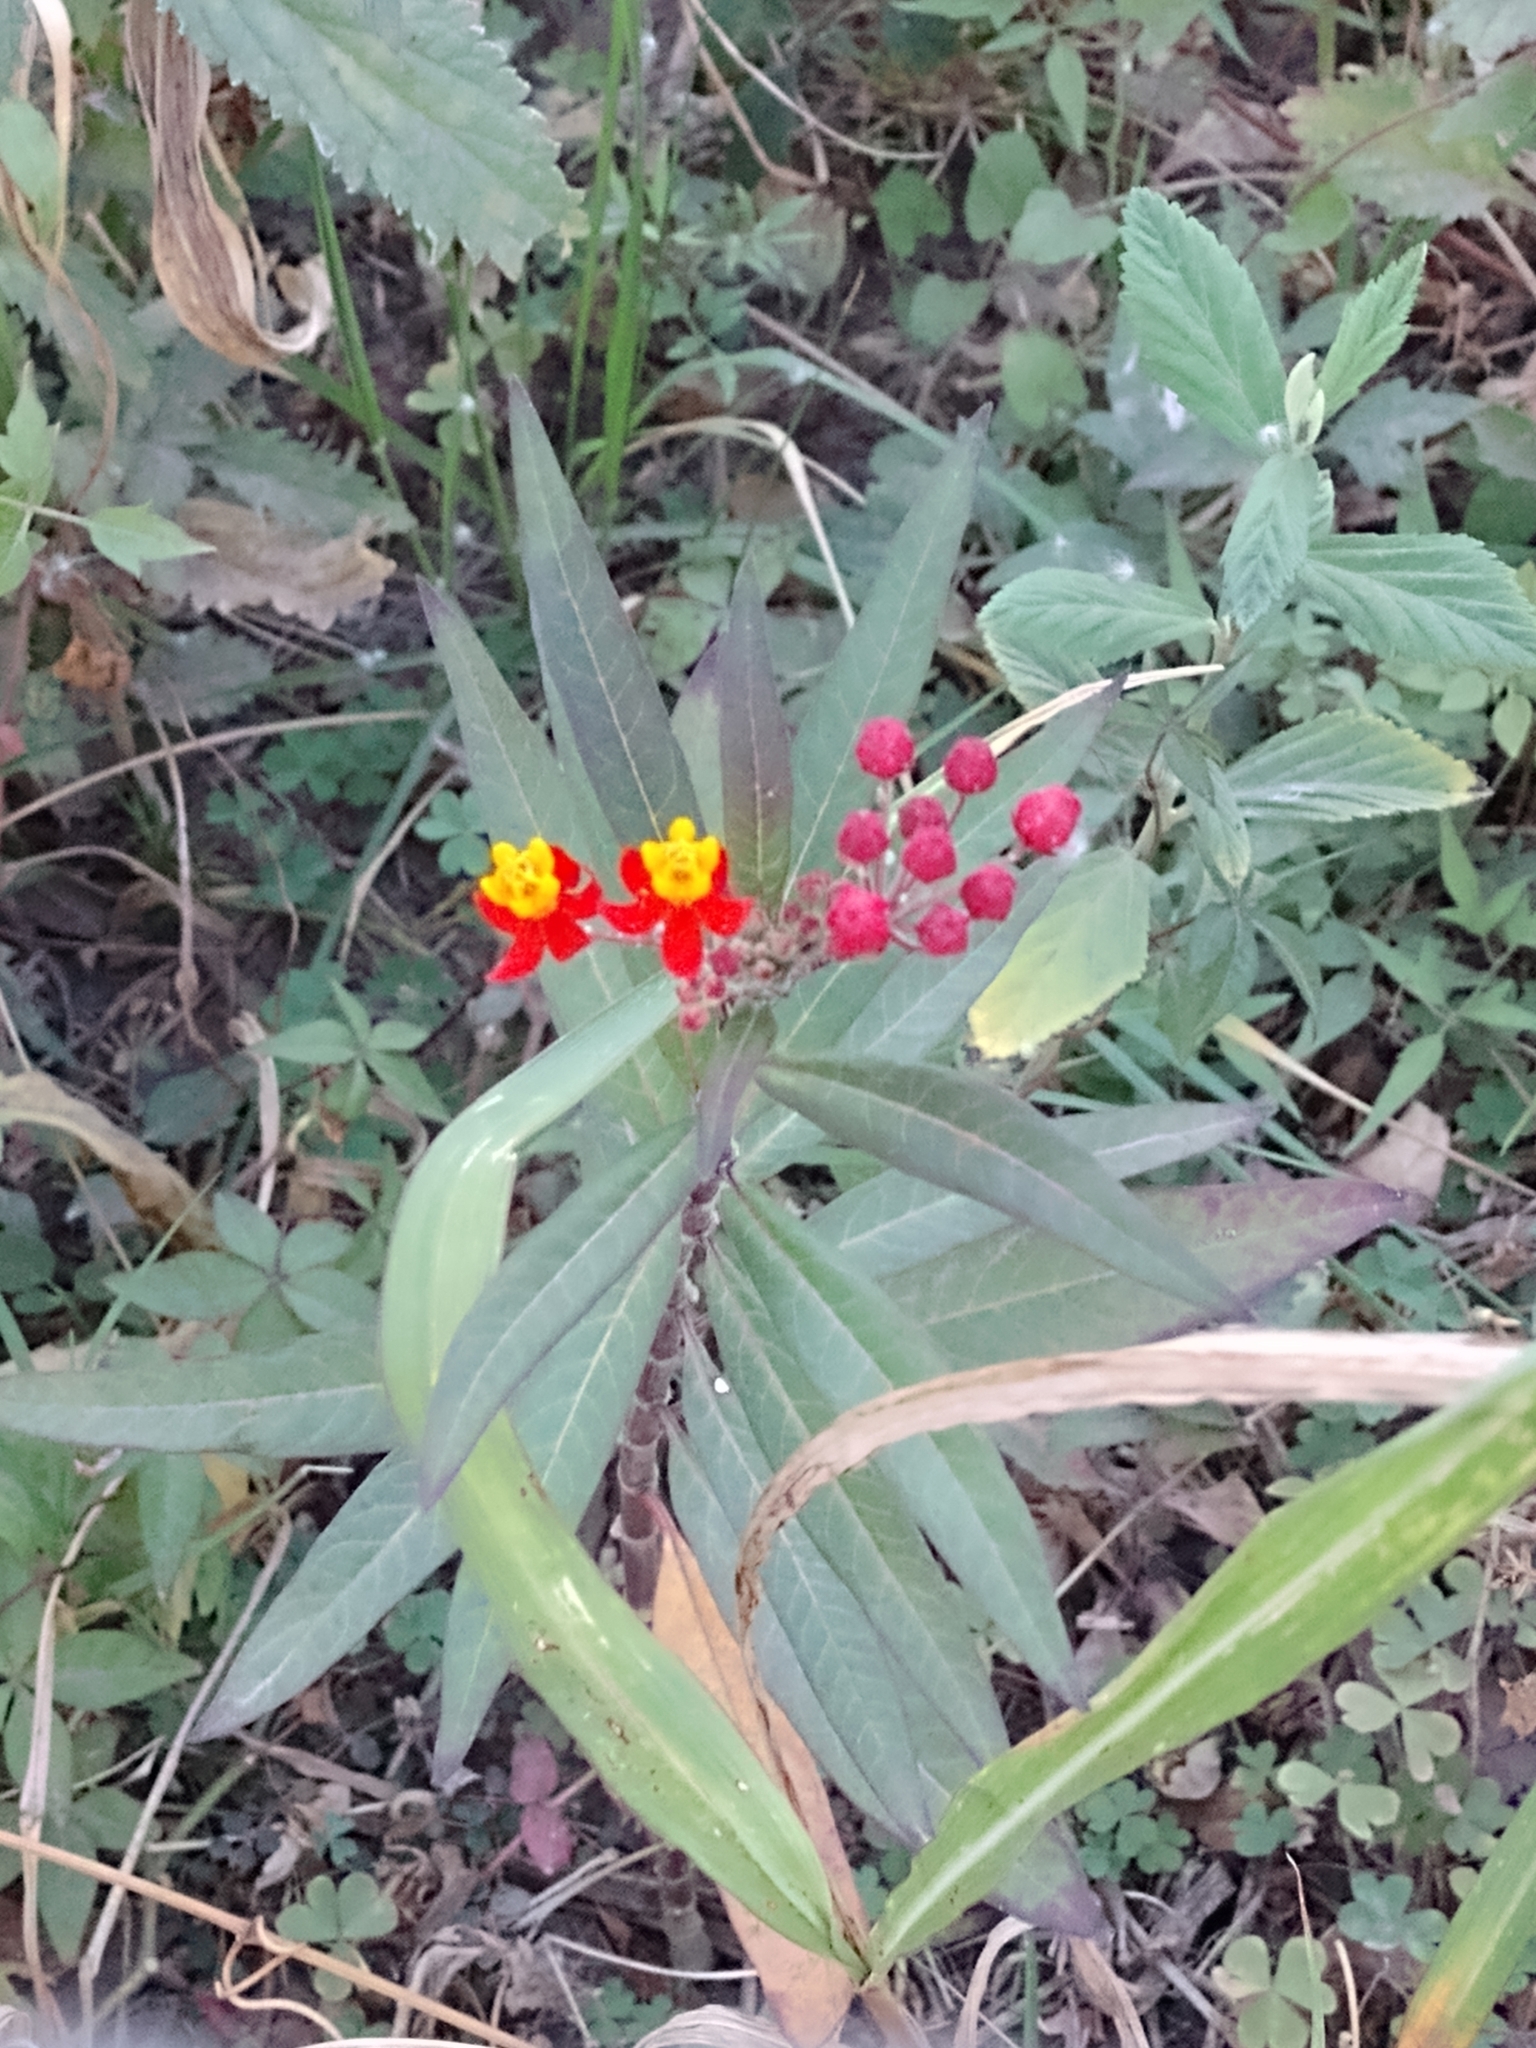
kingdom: Plantae
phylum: Tracheophyta
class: Magnoliopsida
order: Gentianales
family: Apocynaceae
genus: Asclepias
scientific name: Asclepias curassavica
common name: Bloodflower
